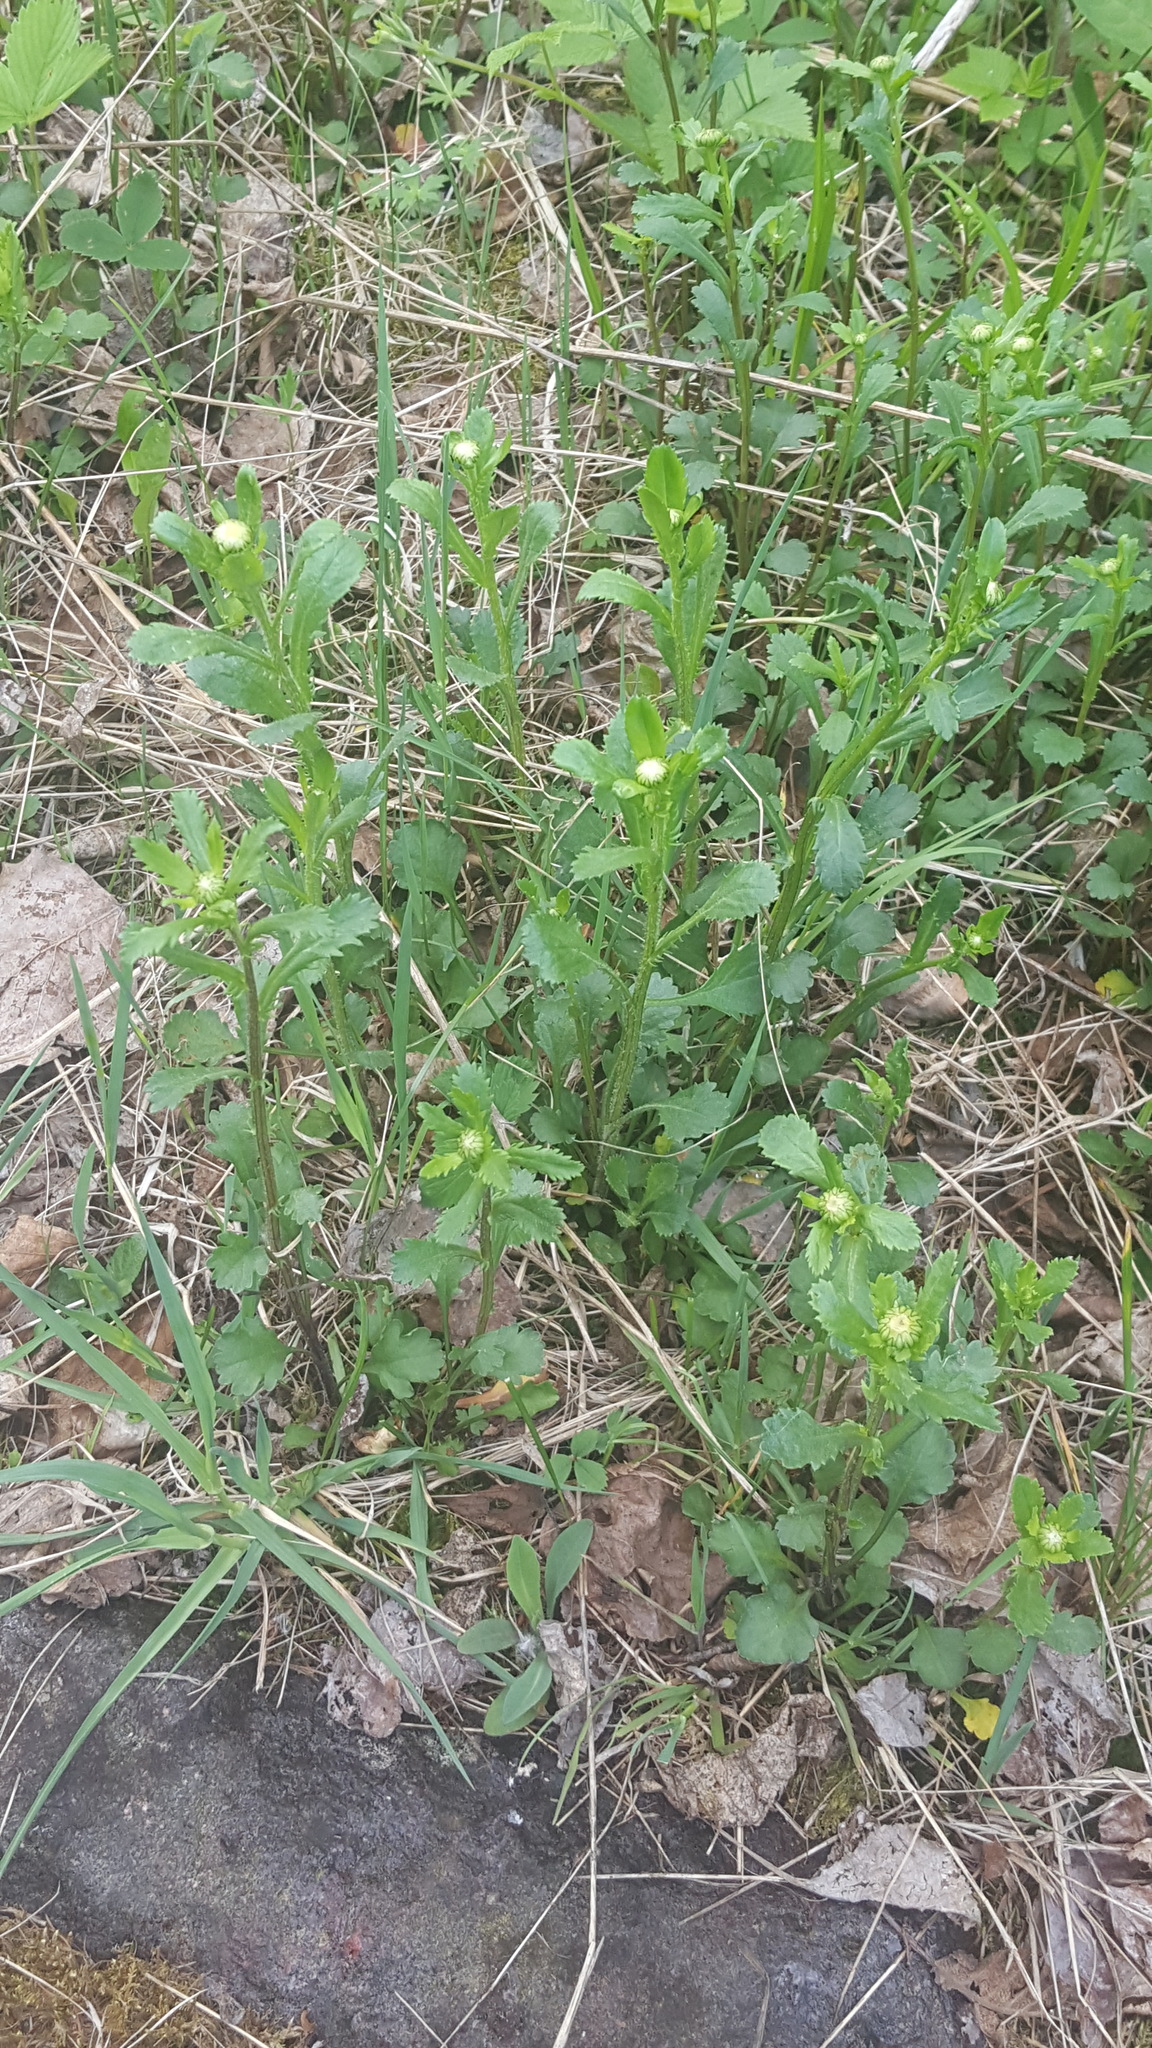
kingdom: Plantae
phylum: Tracheophyta
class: Magnoliopsida
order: Asterales
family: Asteraceae
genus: Leucanthemum
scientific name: Leucanthemum vulgare
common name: Oxeye daisy
